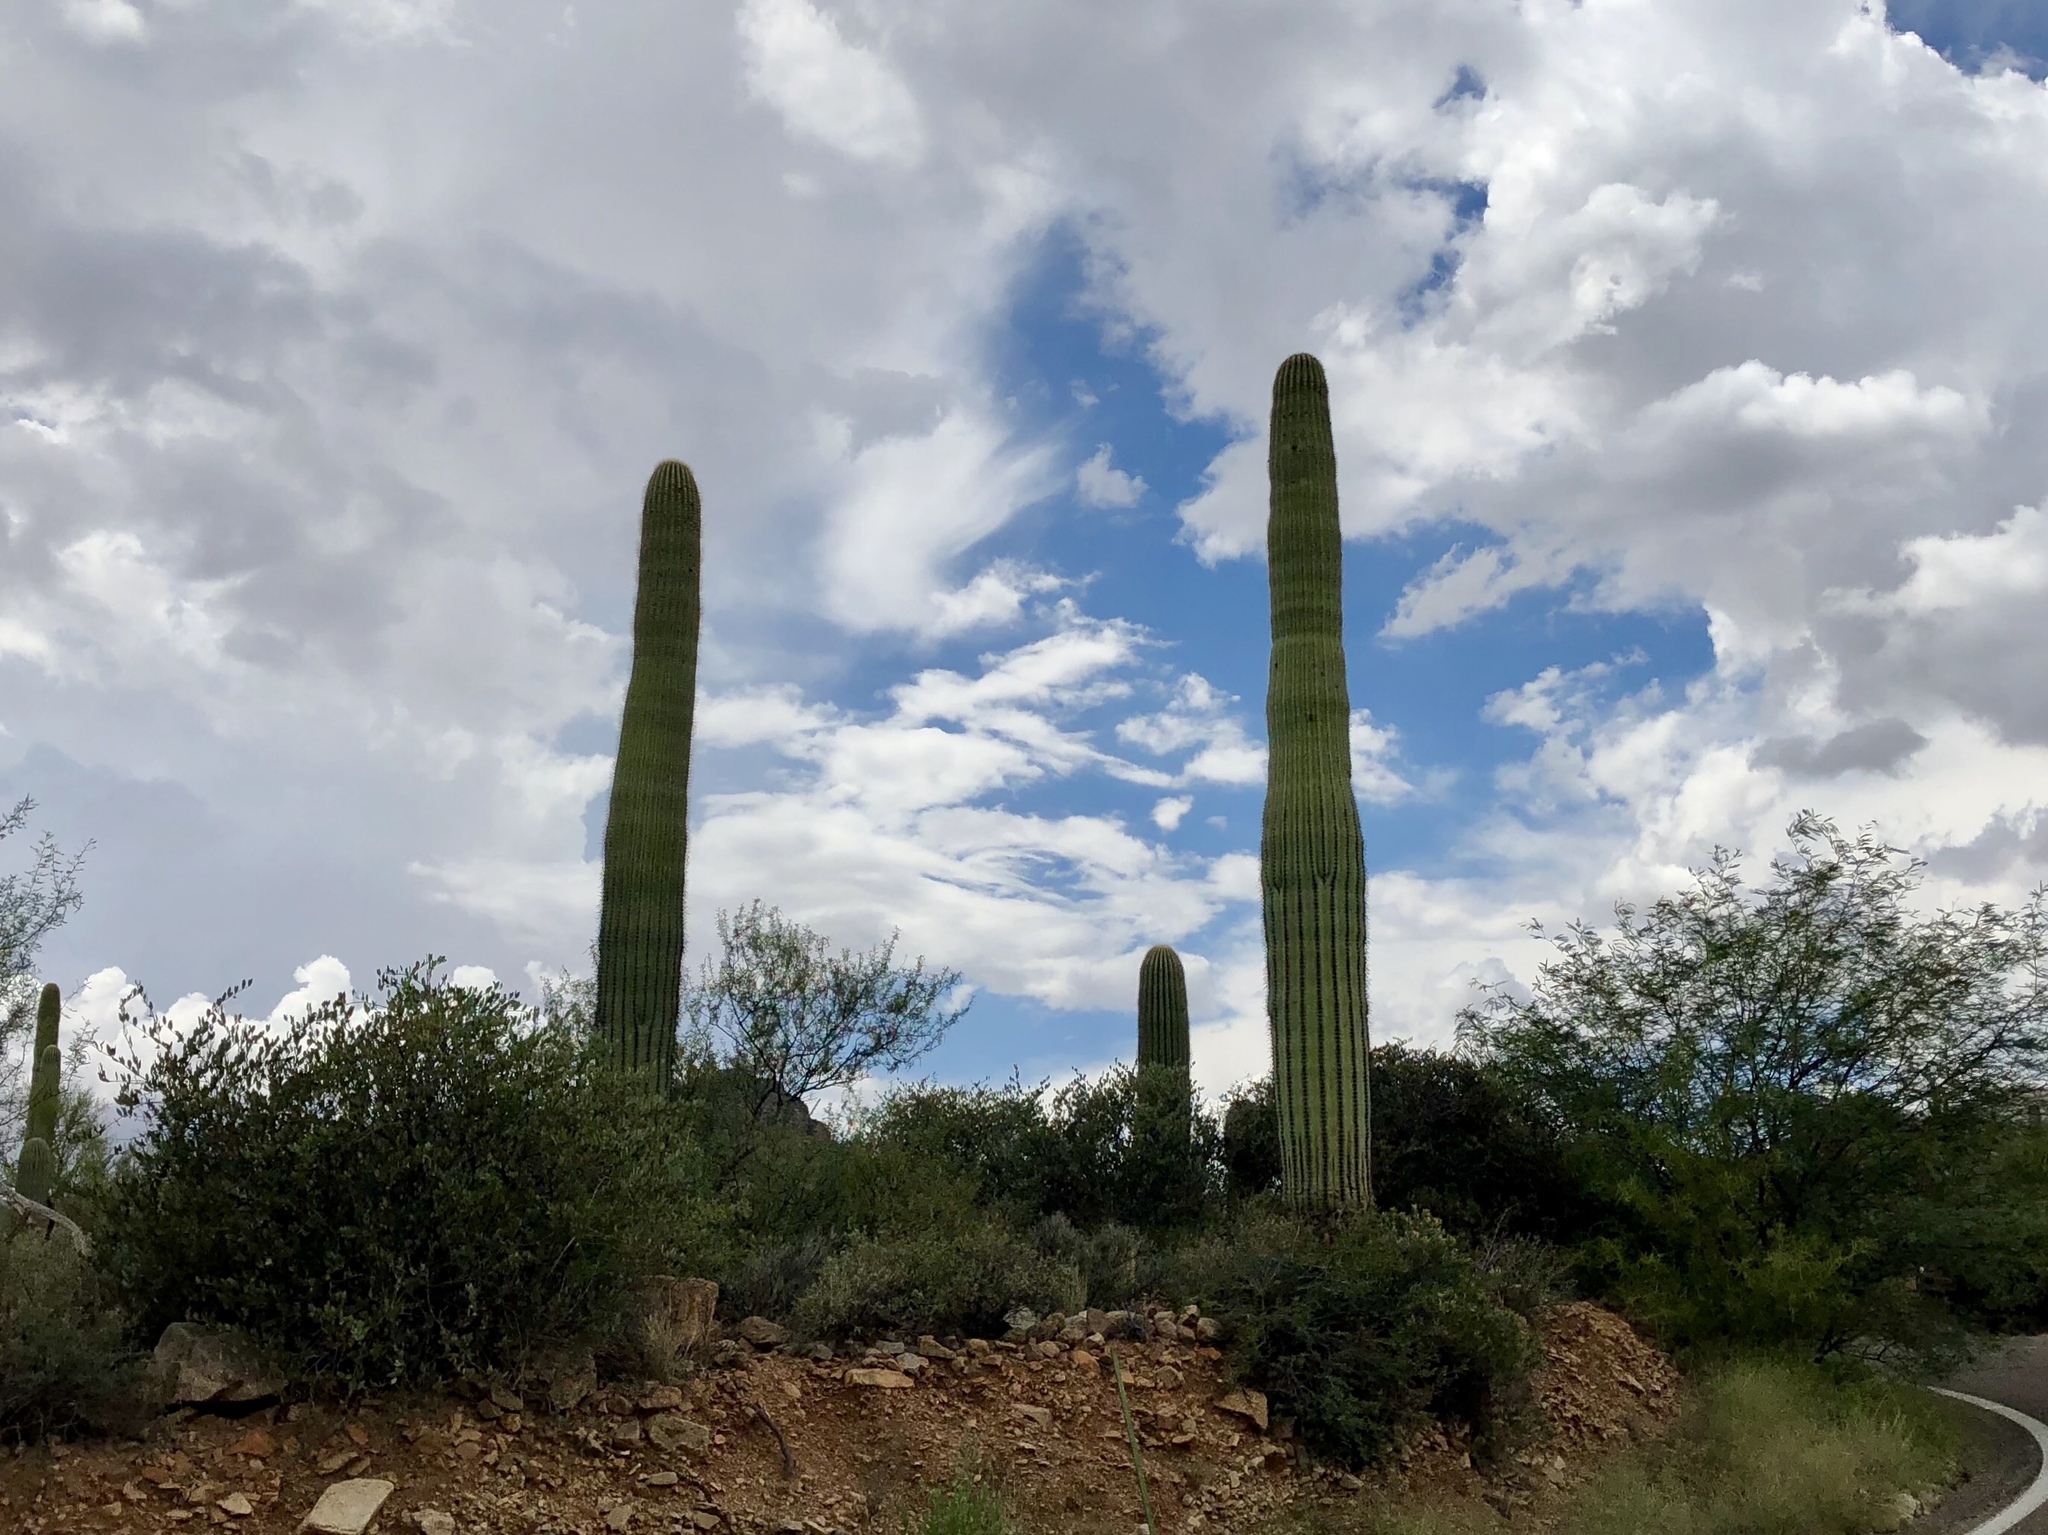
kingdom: Plantae
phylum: Tracheophyta
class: Magnoliopsida
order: Caryophyllales
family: Cactaceae
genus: Carnegiea
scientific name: Carnegiea gigantea
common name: Saguaro
